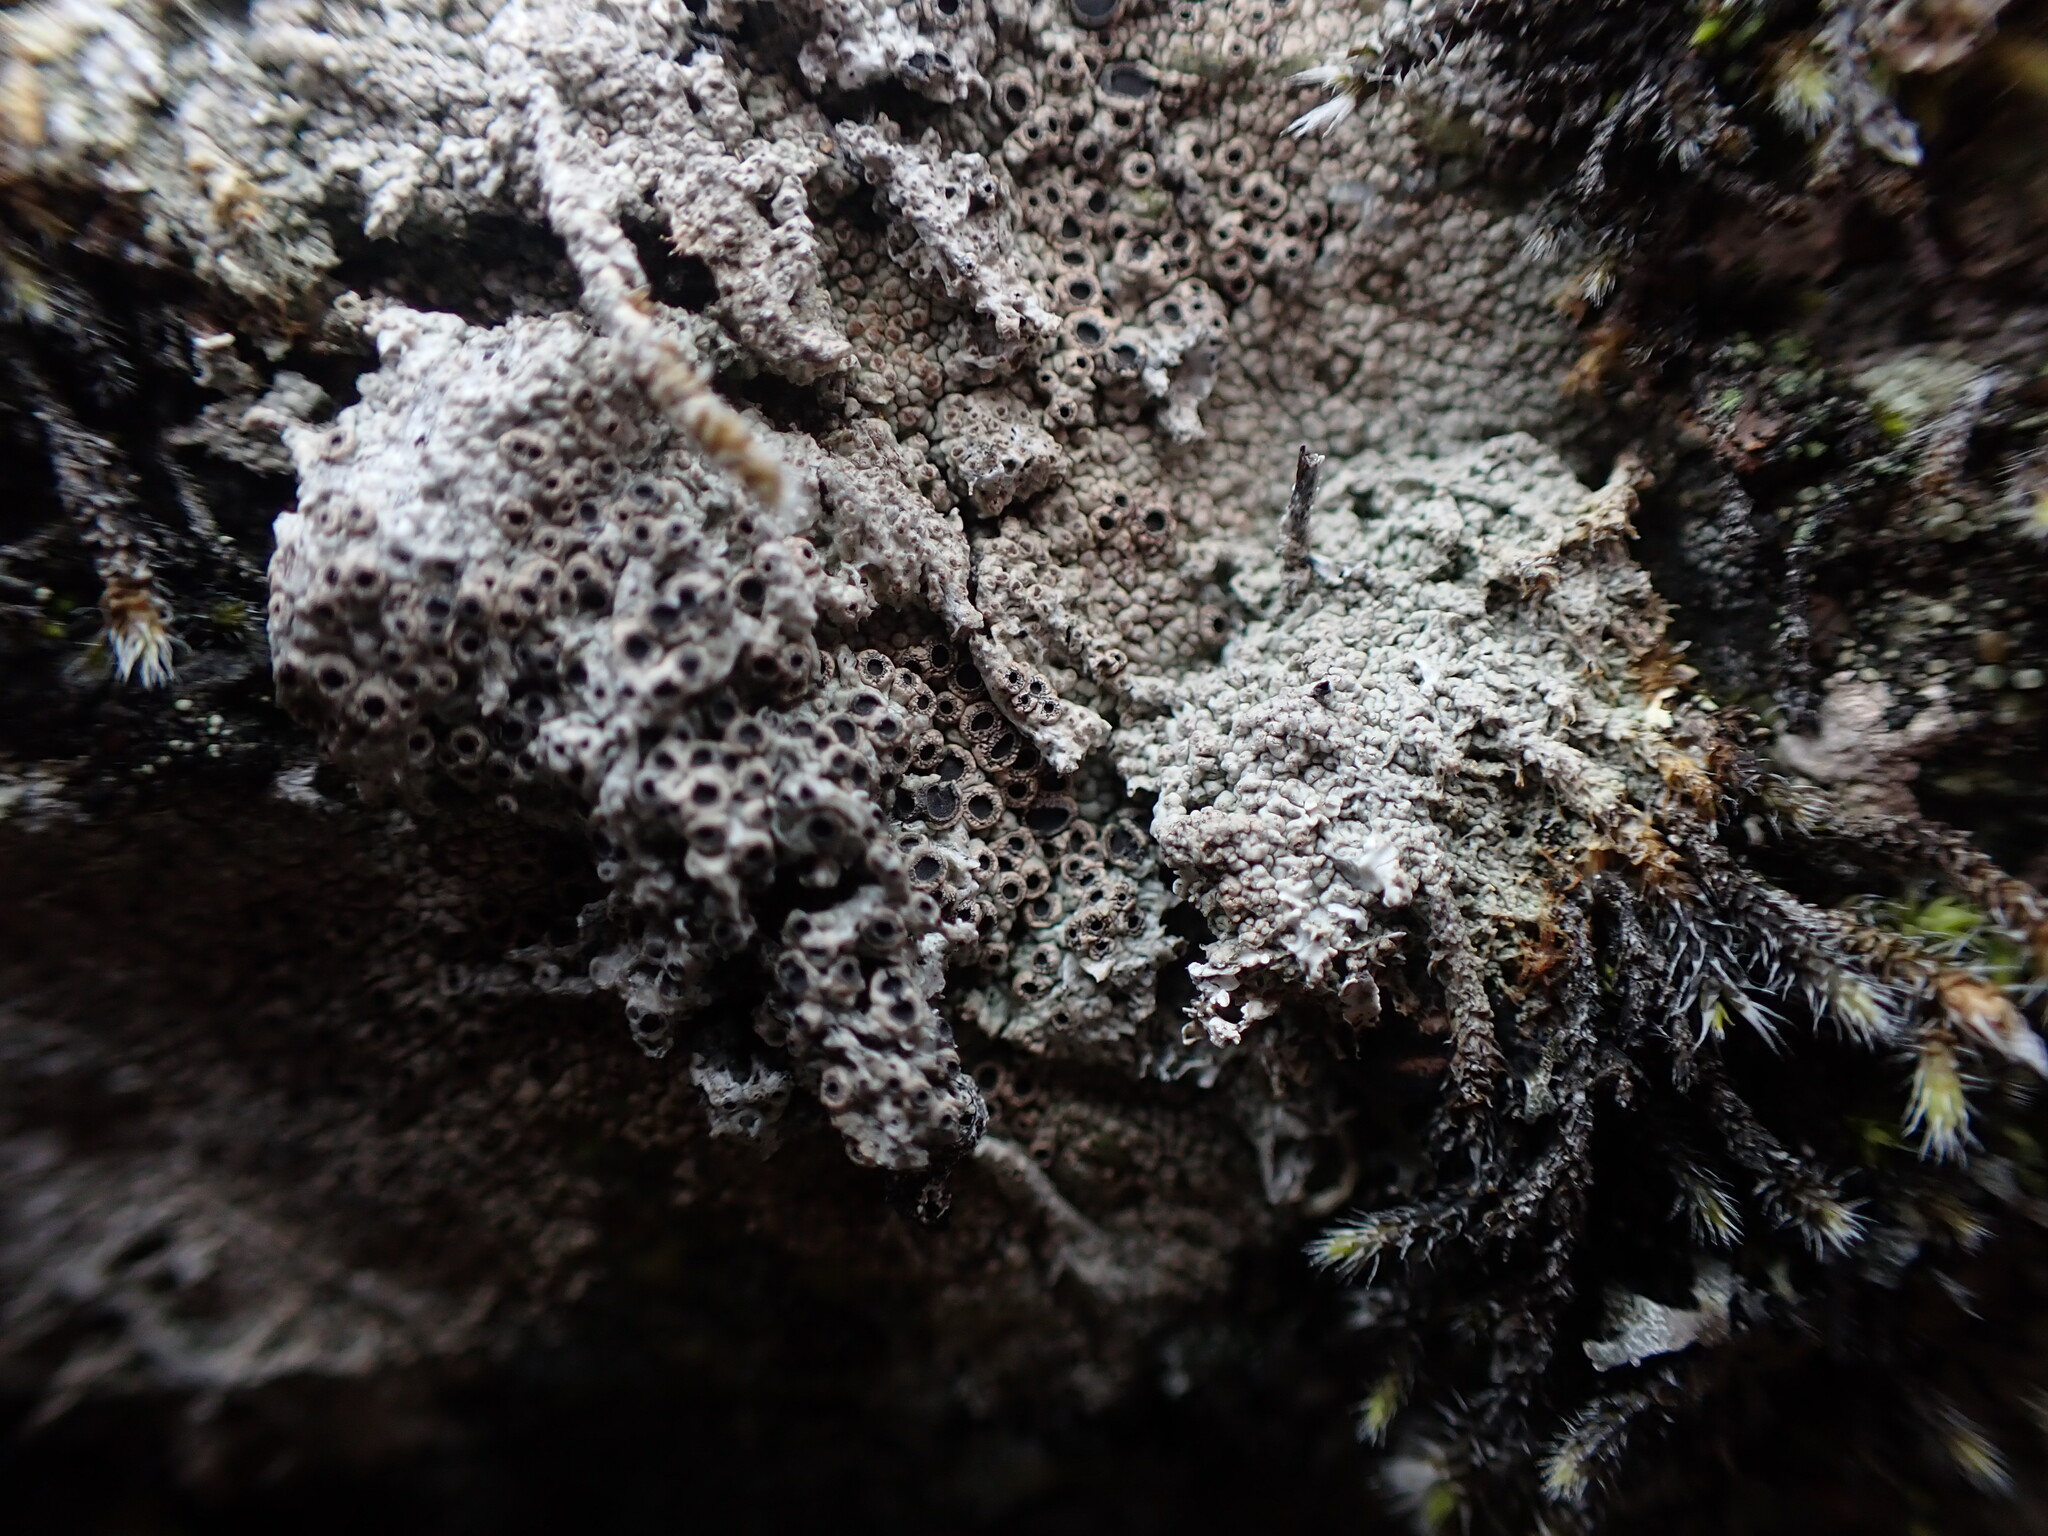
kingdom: Fungi
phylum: Ascomycota
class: Lecanoromycetes
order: Ostropales
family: Graphidaceae
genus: Diploschistes
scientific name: Diploschistes muscorum
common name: Cowpie lichen
